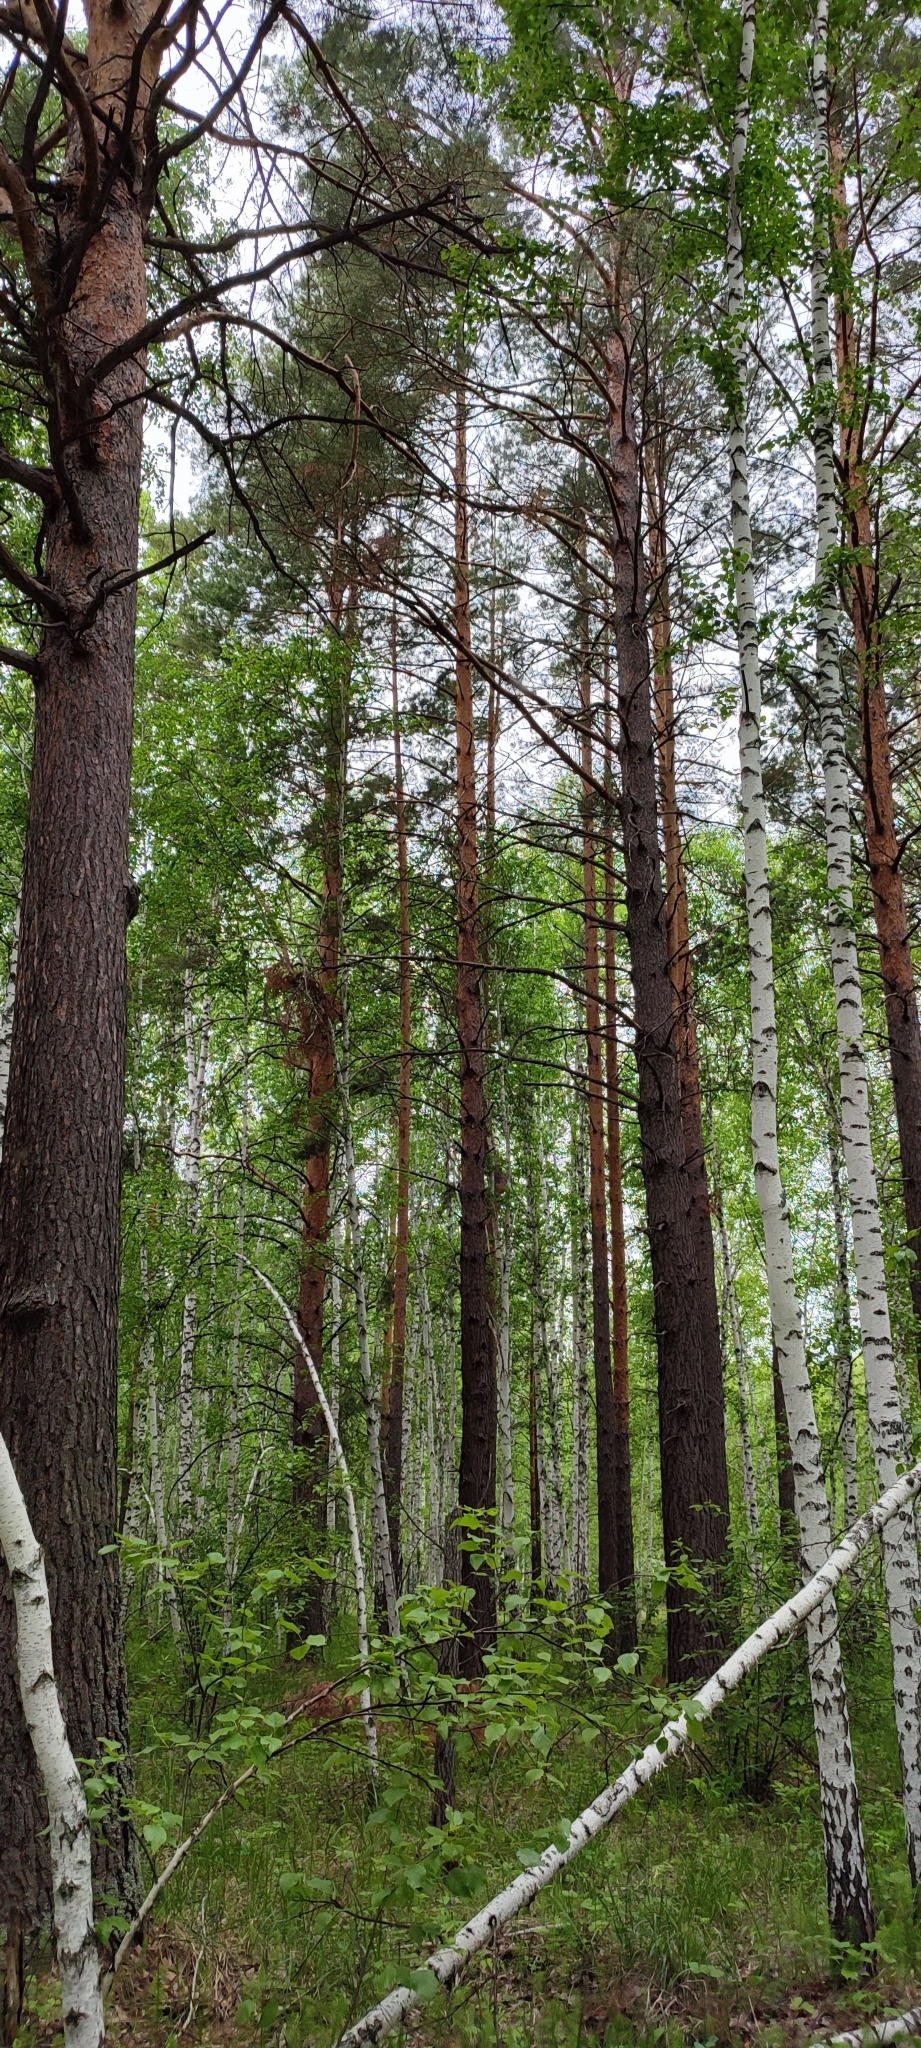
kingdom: Plantae
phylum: Tracheophyta
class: Pinopsida
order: Pinales
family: Pinaceae
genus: Pinus
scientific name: Pinus sylvestris
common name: Scots pine
